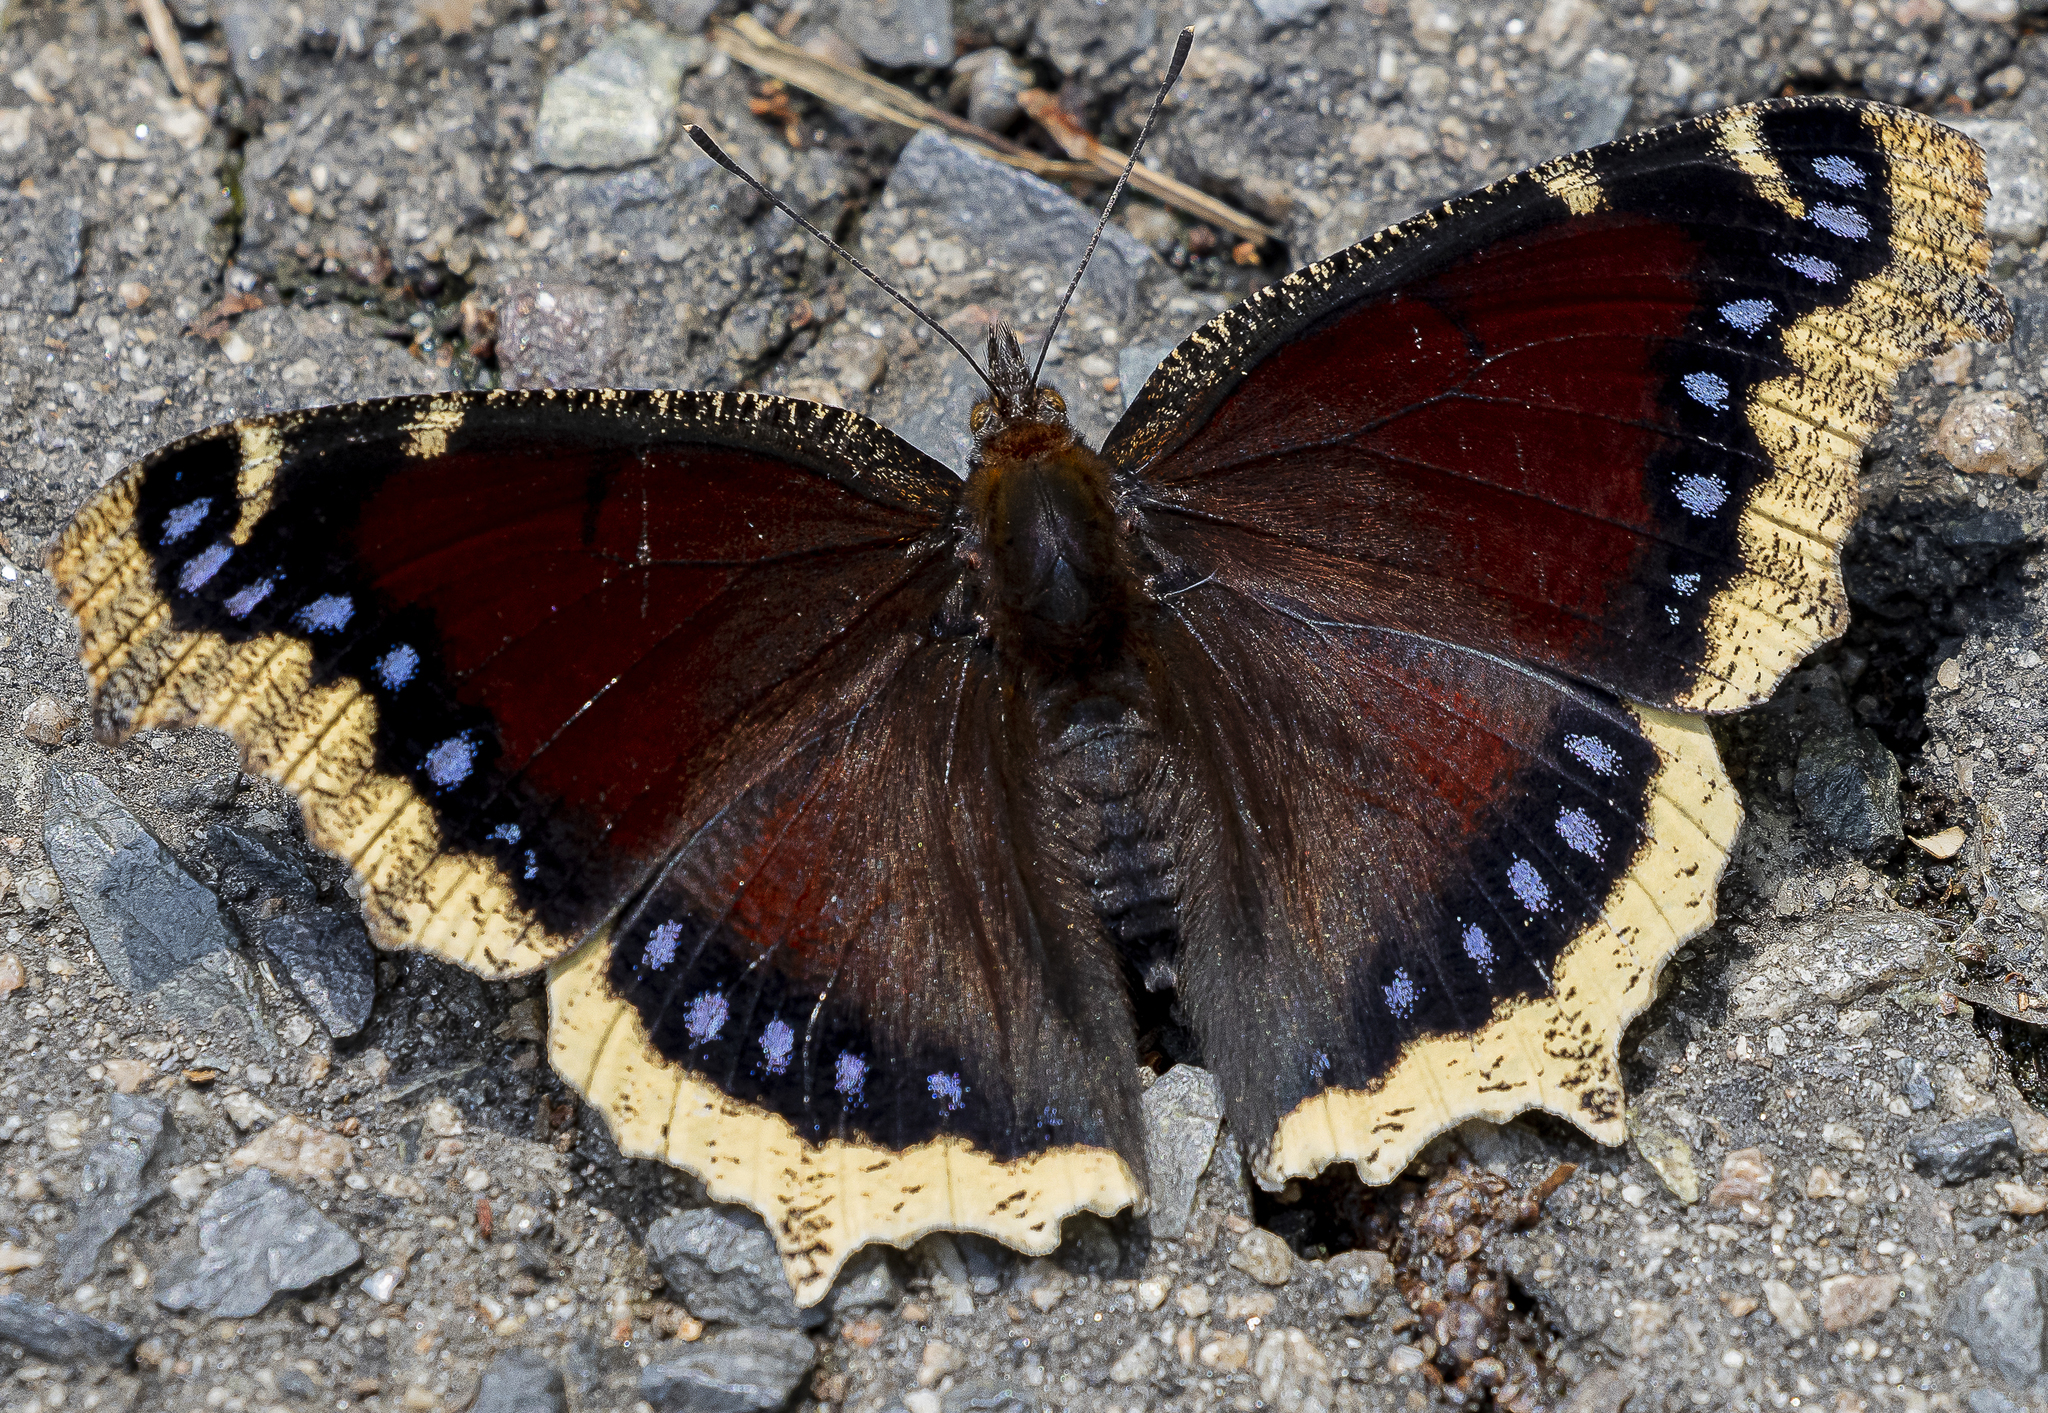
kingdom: Animalia
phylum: Arthropoda
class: Insecta
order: Lepidoptera
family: Nymphalidae
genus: Nymphalis
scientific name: Nymphalis antiopa
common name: Camberwell beauty
